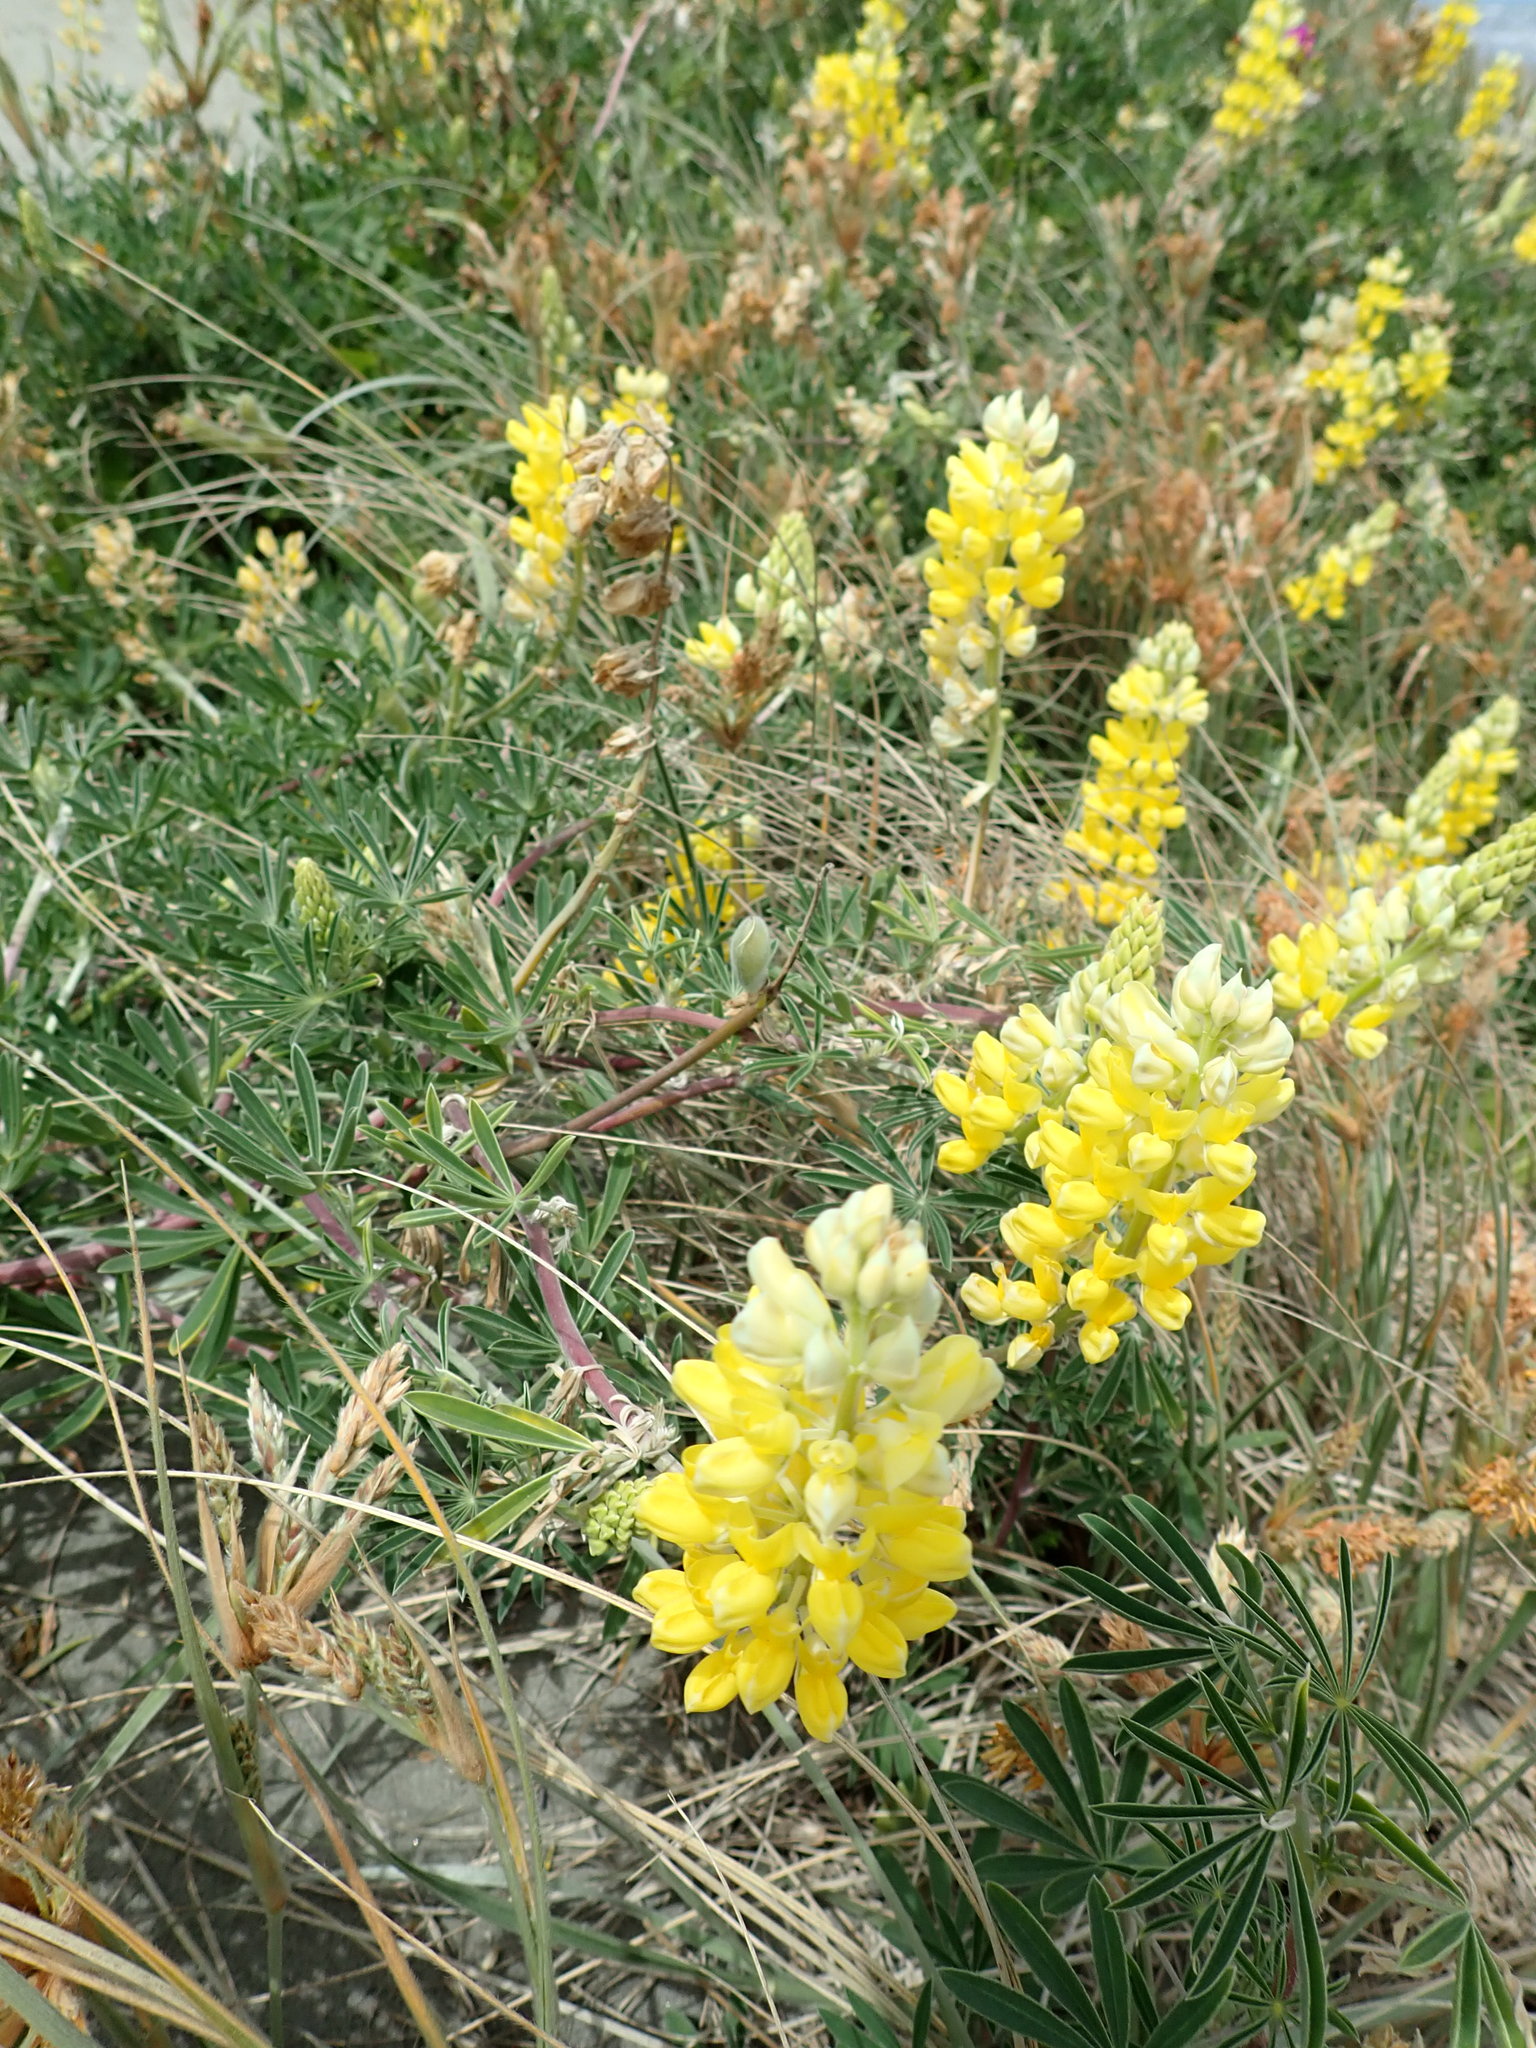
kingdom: Plantae
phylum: Tracheophyta
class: Magnoliopsida
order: Fabales
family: Fabaceae
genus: Lupinus
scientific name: Lupinus arboreus
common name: Yellow bush lupine
